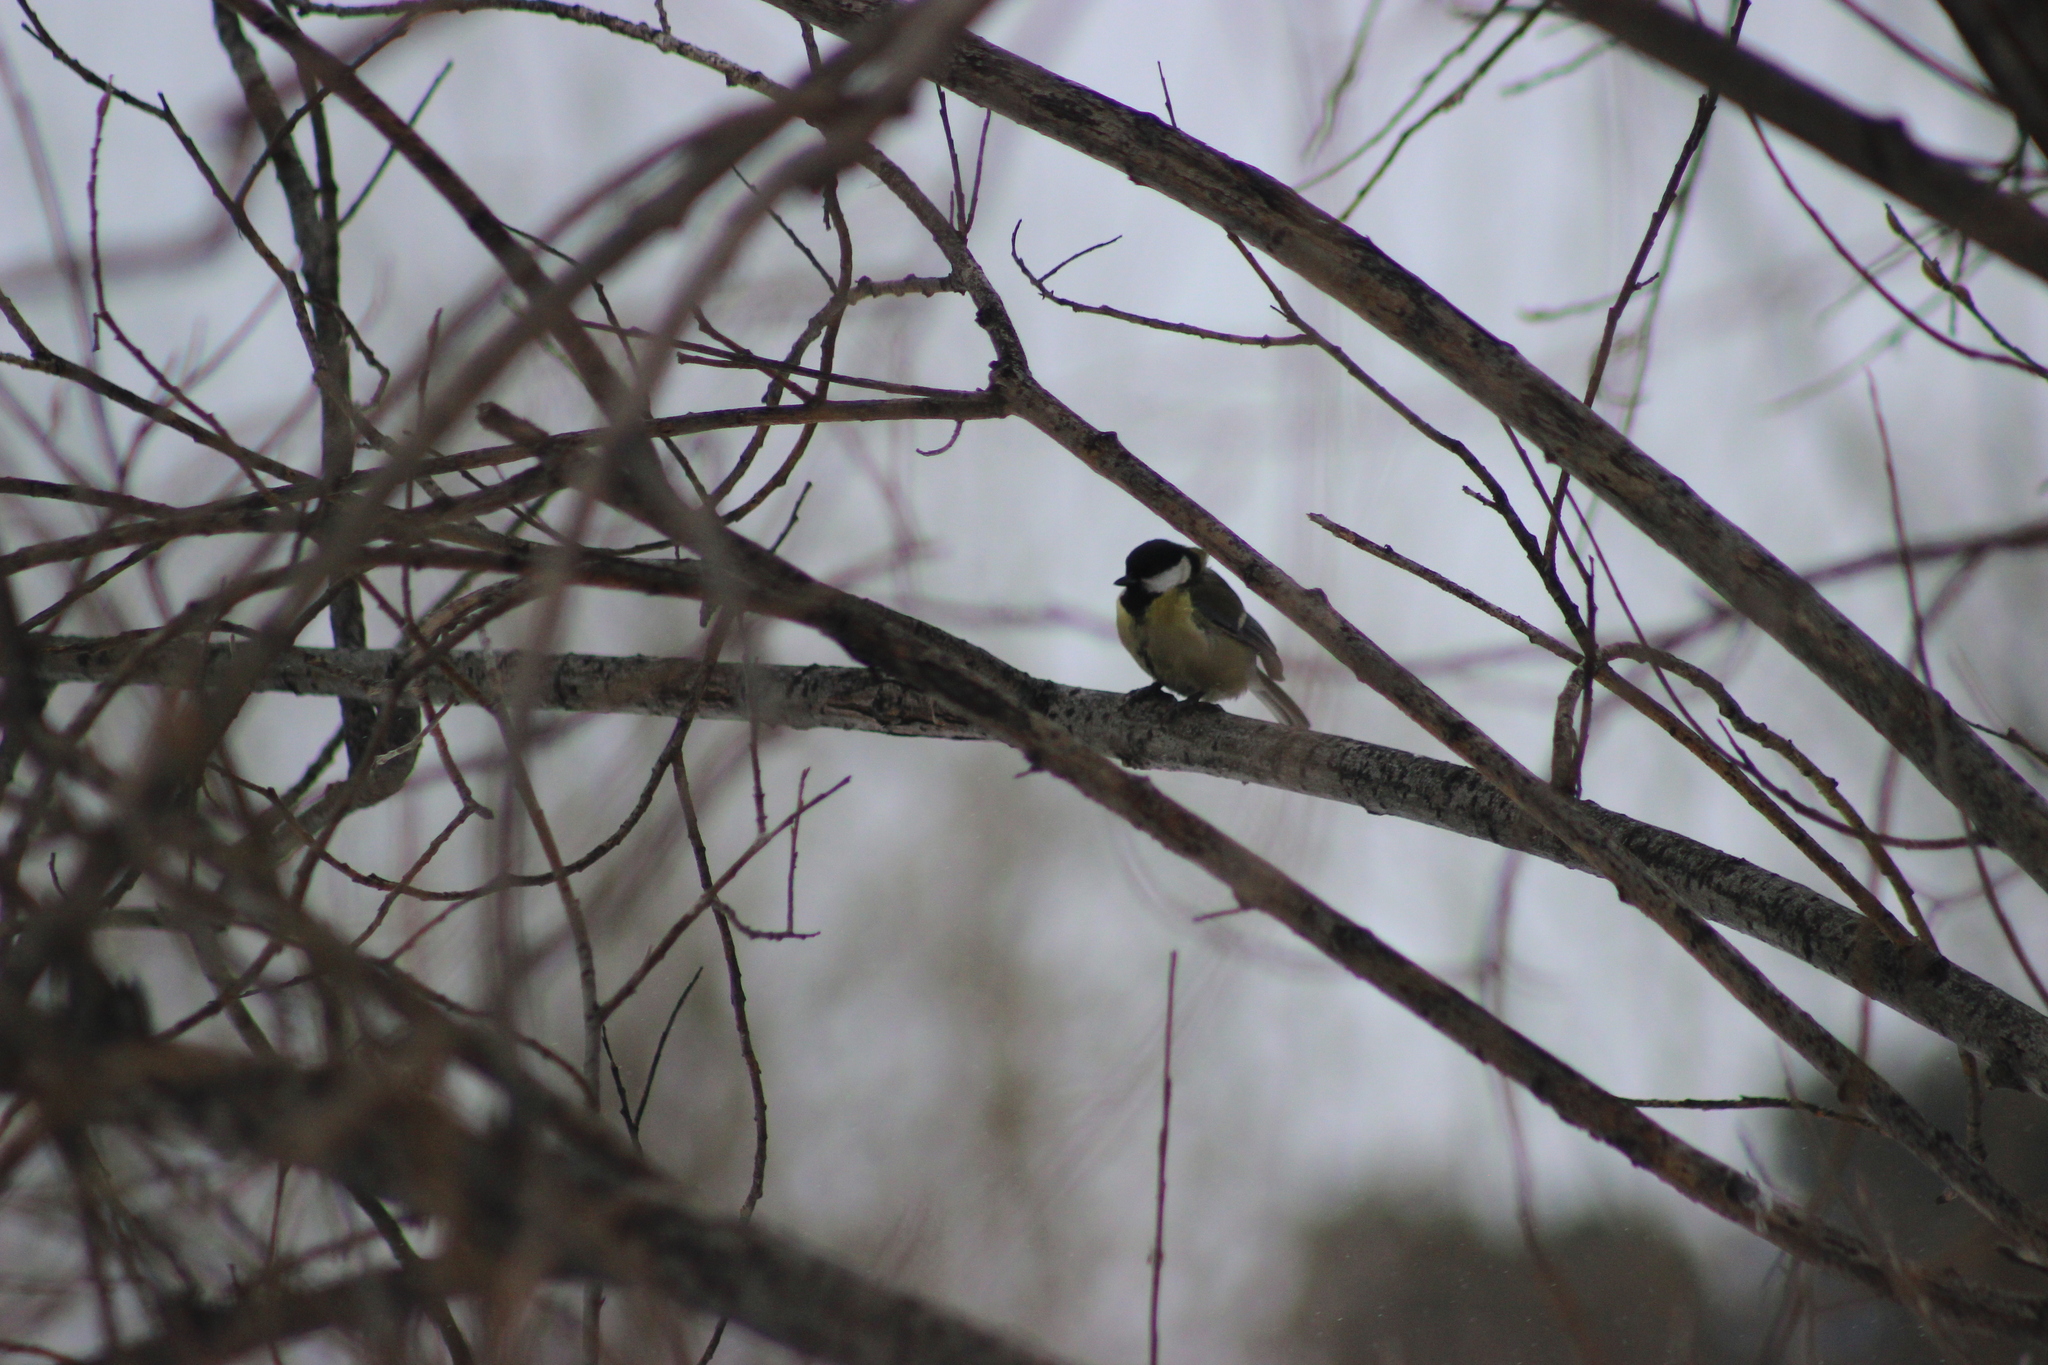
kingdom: Animalia
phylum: Chordata
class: Aves
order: Passeriformes
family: Paridae
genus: Parus
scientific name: Parus major
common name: Great tit
